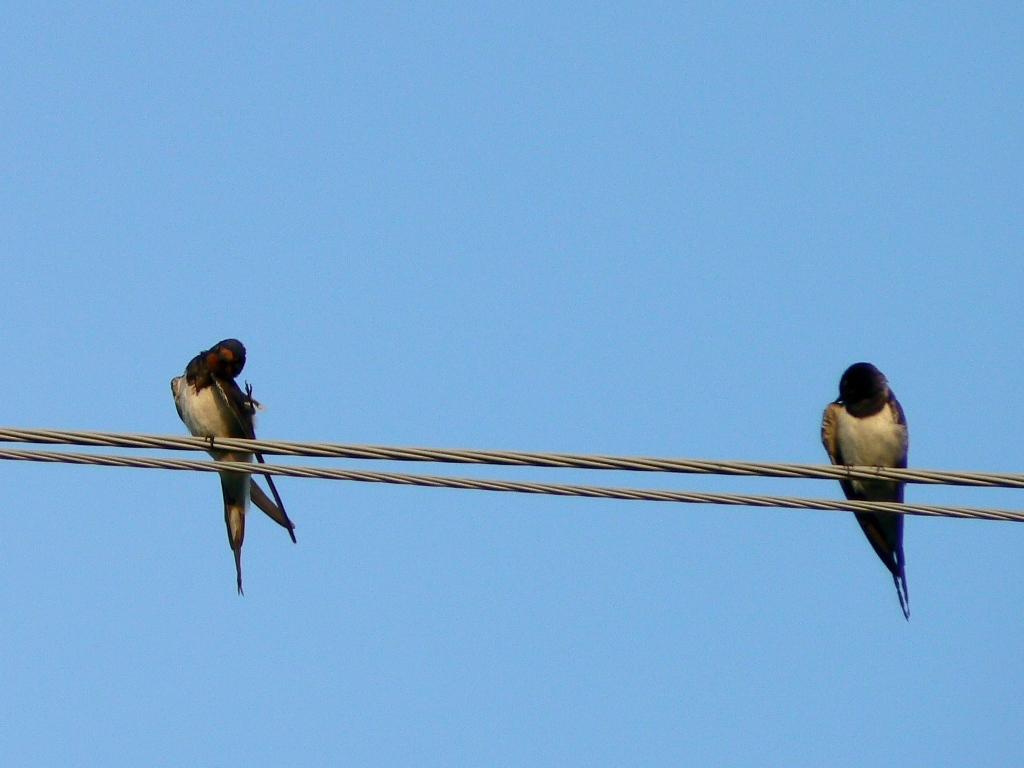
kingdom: Animalia
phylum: Chordata
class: Aves
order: Passeriformes
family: Hirundinidae
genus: Hirundo
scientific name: Hirundo rustica
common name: Barn swallow
